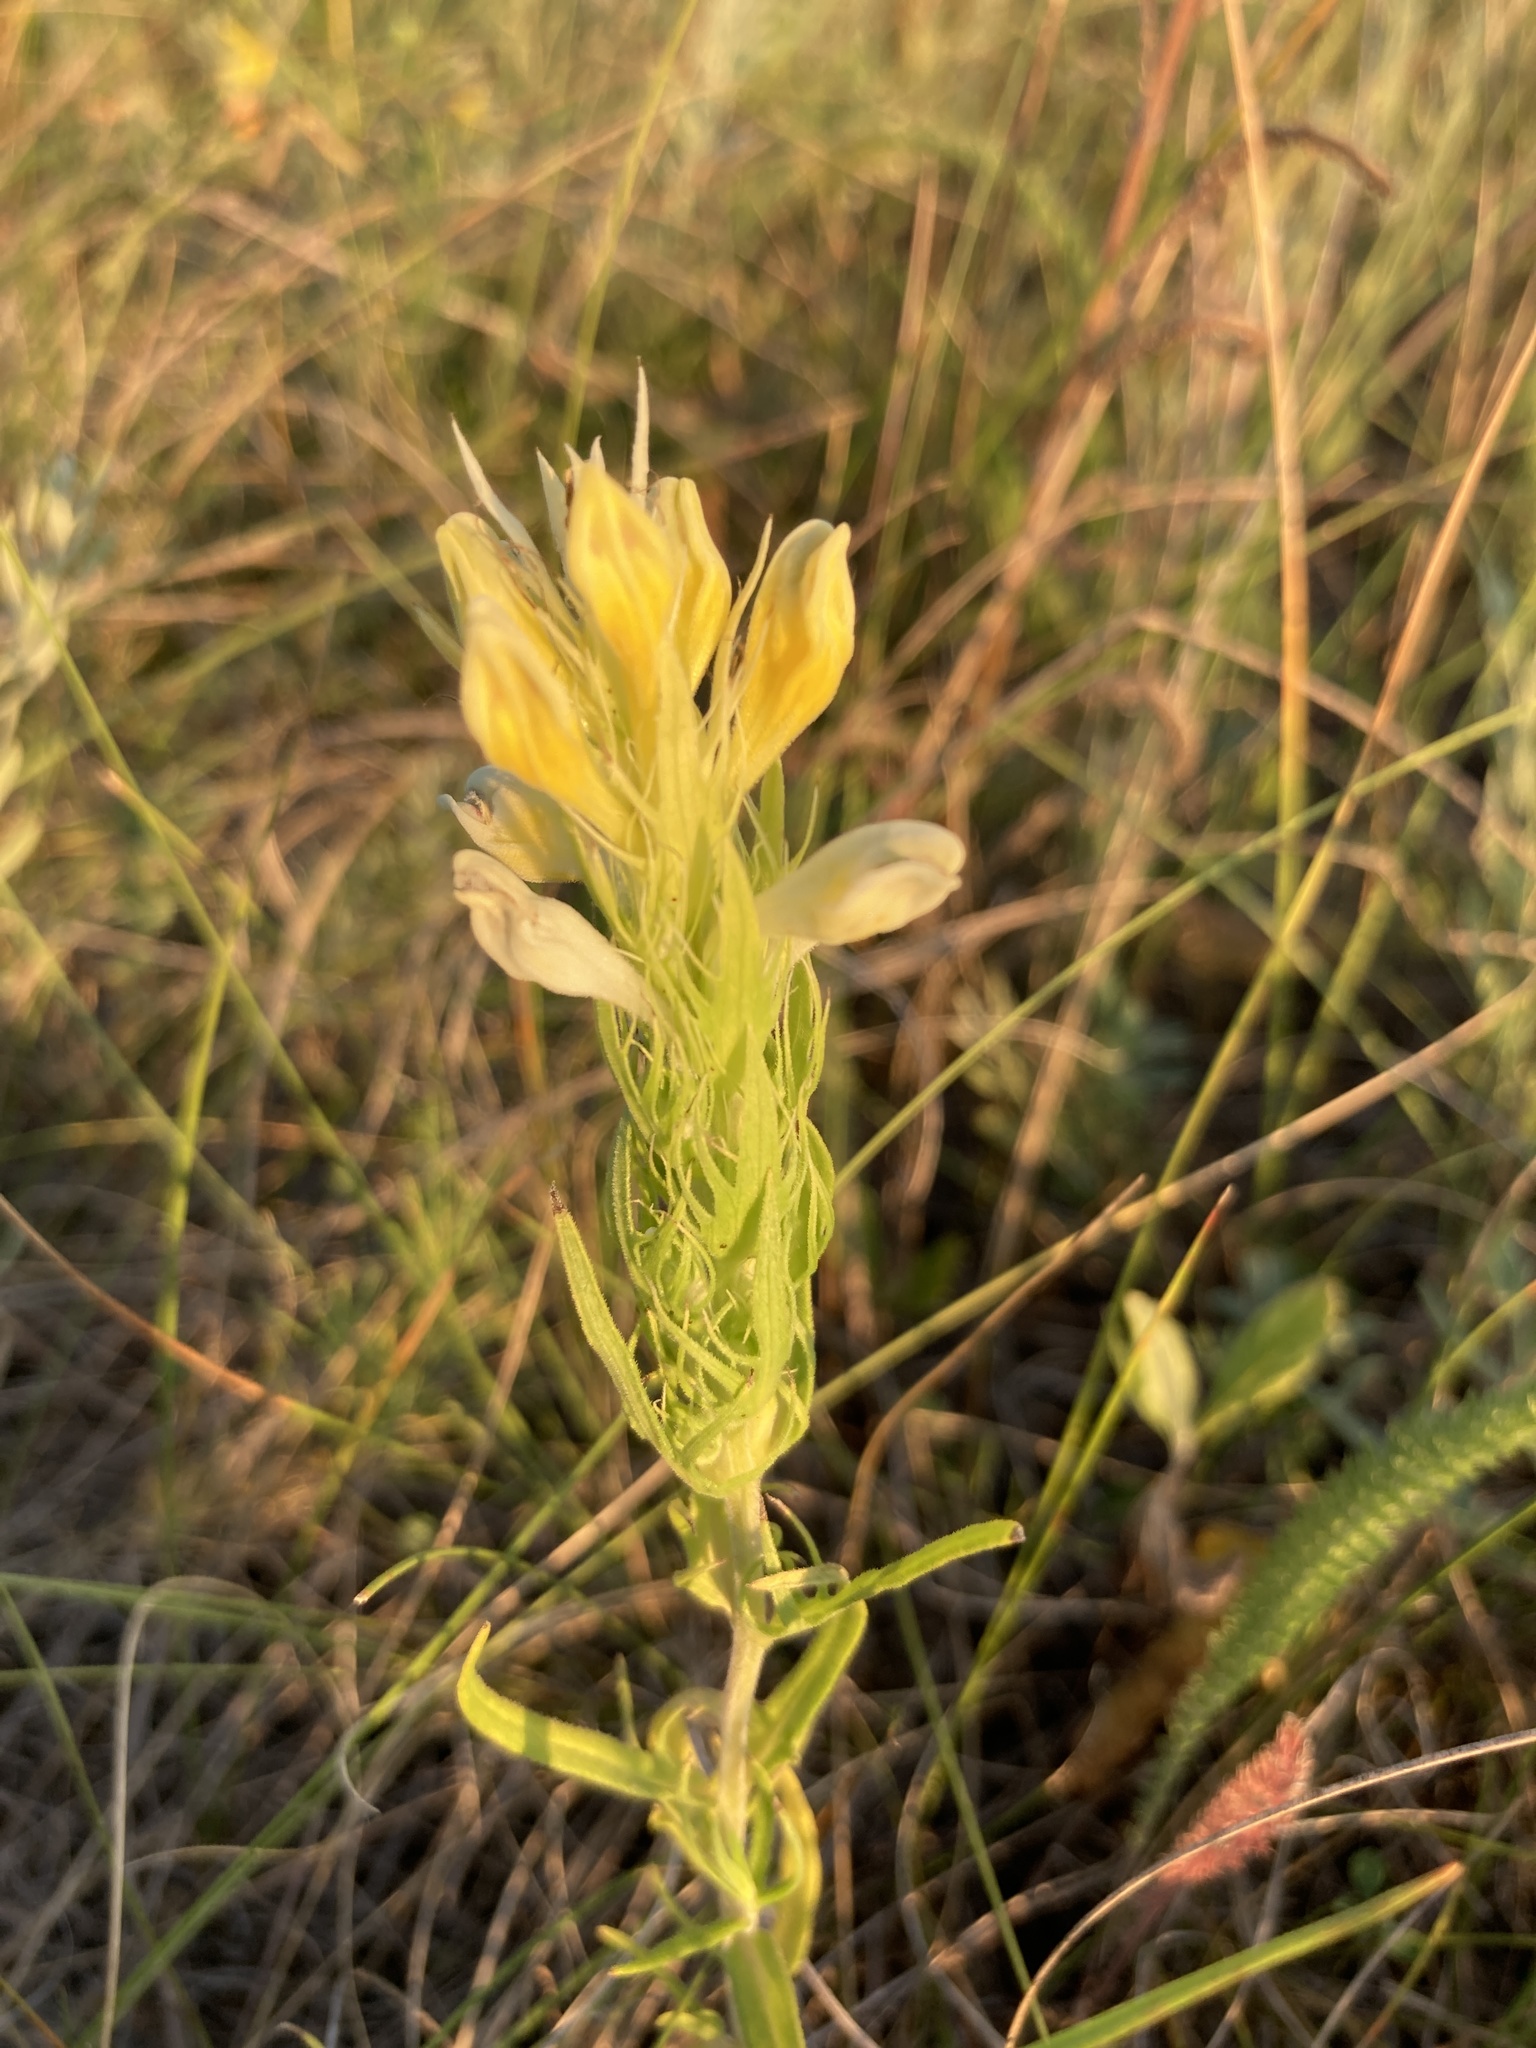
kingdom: Plantae
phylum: Tracheophyta
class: Magnoliopsida
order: Lamiales
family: Orobanchaceae
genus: Melampyrum
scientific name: Melampyrum arvense
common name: Field cow-wheat
